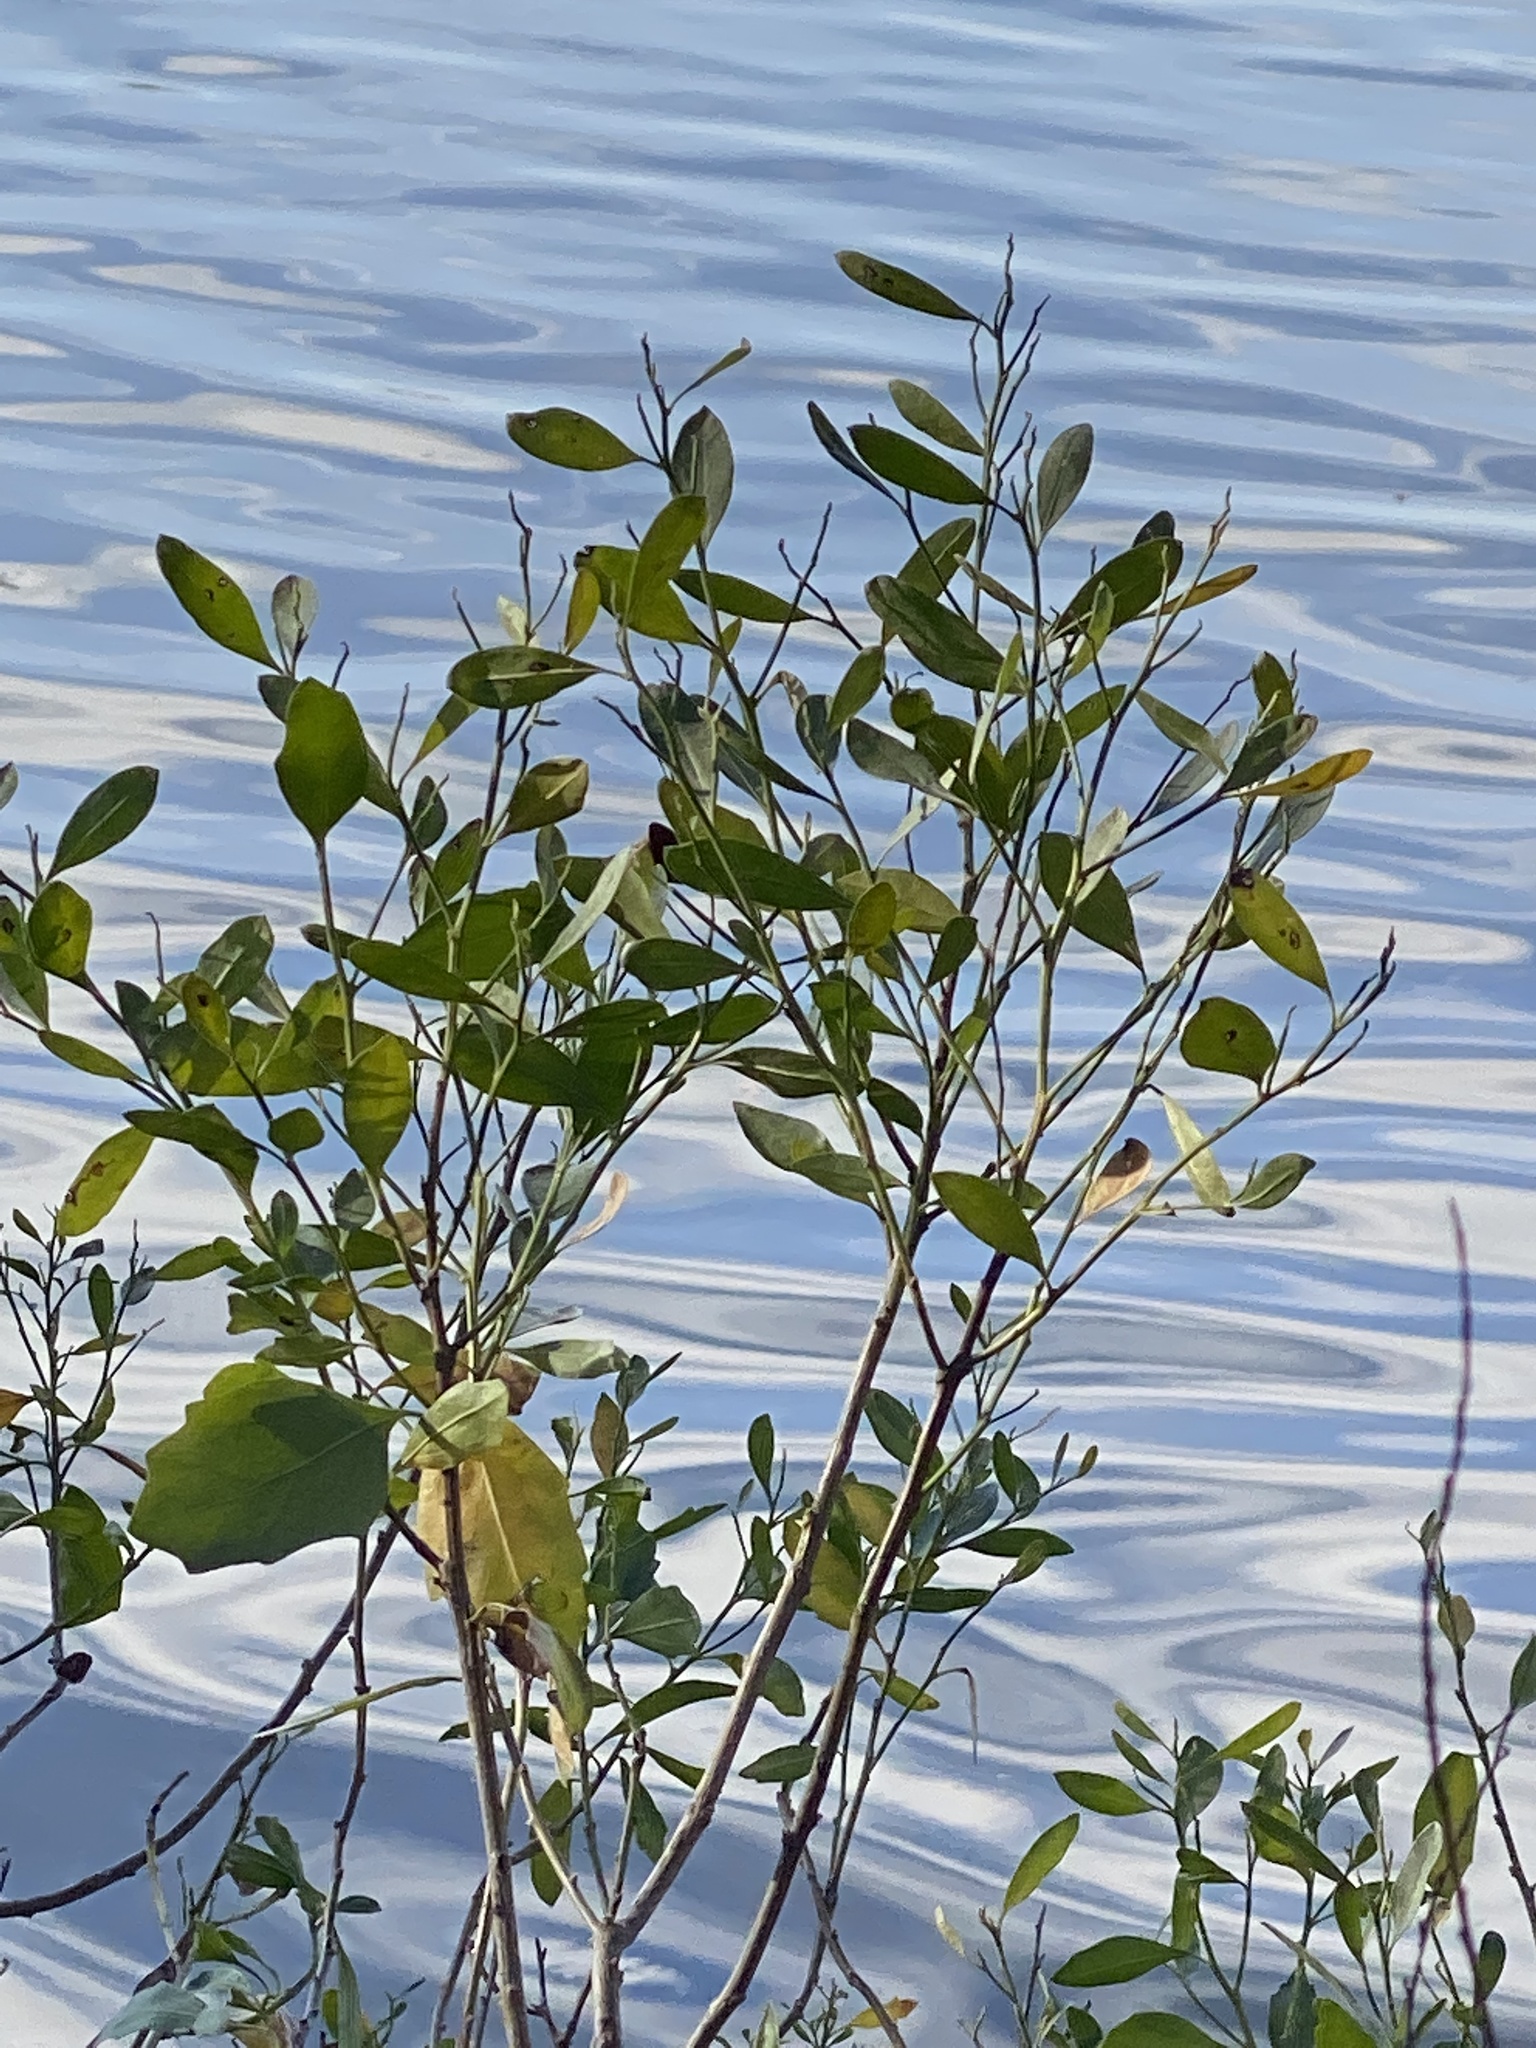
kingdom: Plantae
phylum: Tracheophyta
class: Magnoliopsida
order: Asterales
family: Asteraceae
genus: Baccharis
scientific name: Baccharis halimifolia
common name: Eastern baccharis
